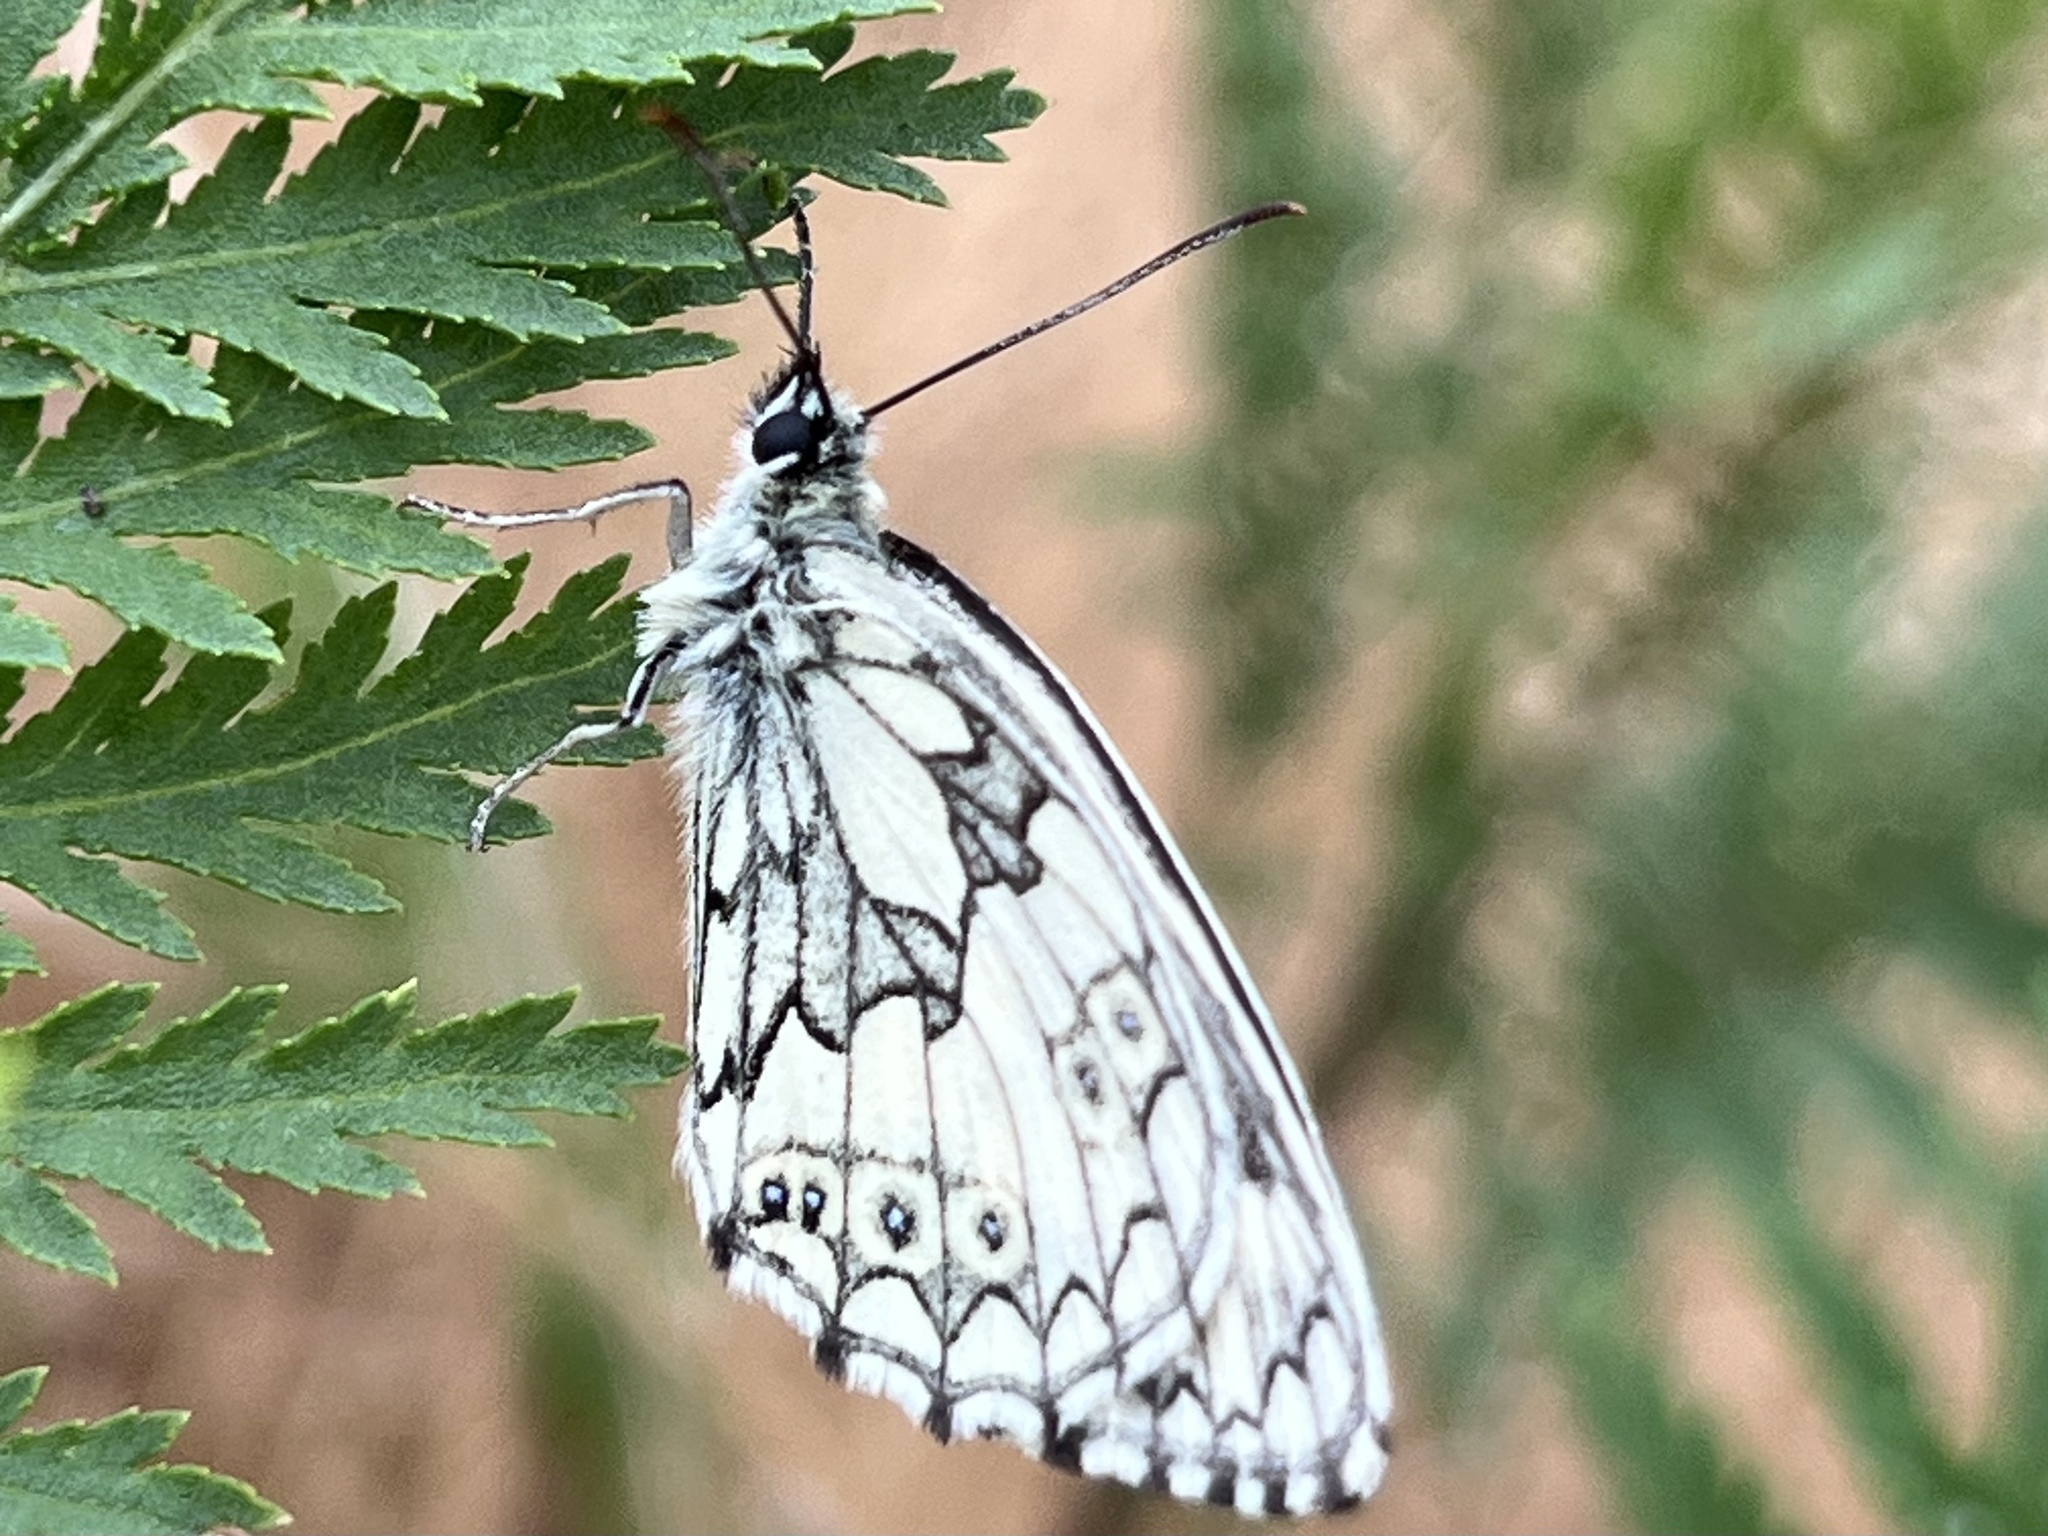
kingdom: Animalia
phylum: Arthropoda
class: Insecta
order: Lepidoptera
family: Nymphalidae
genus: Melanargia
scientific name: Melanargia galathea
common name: Marbled white
